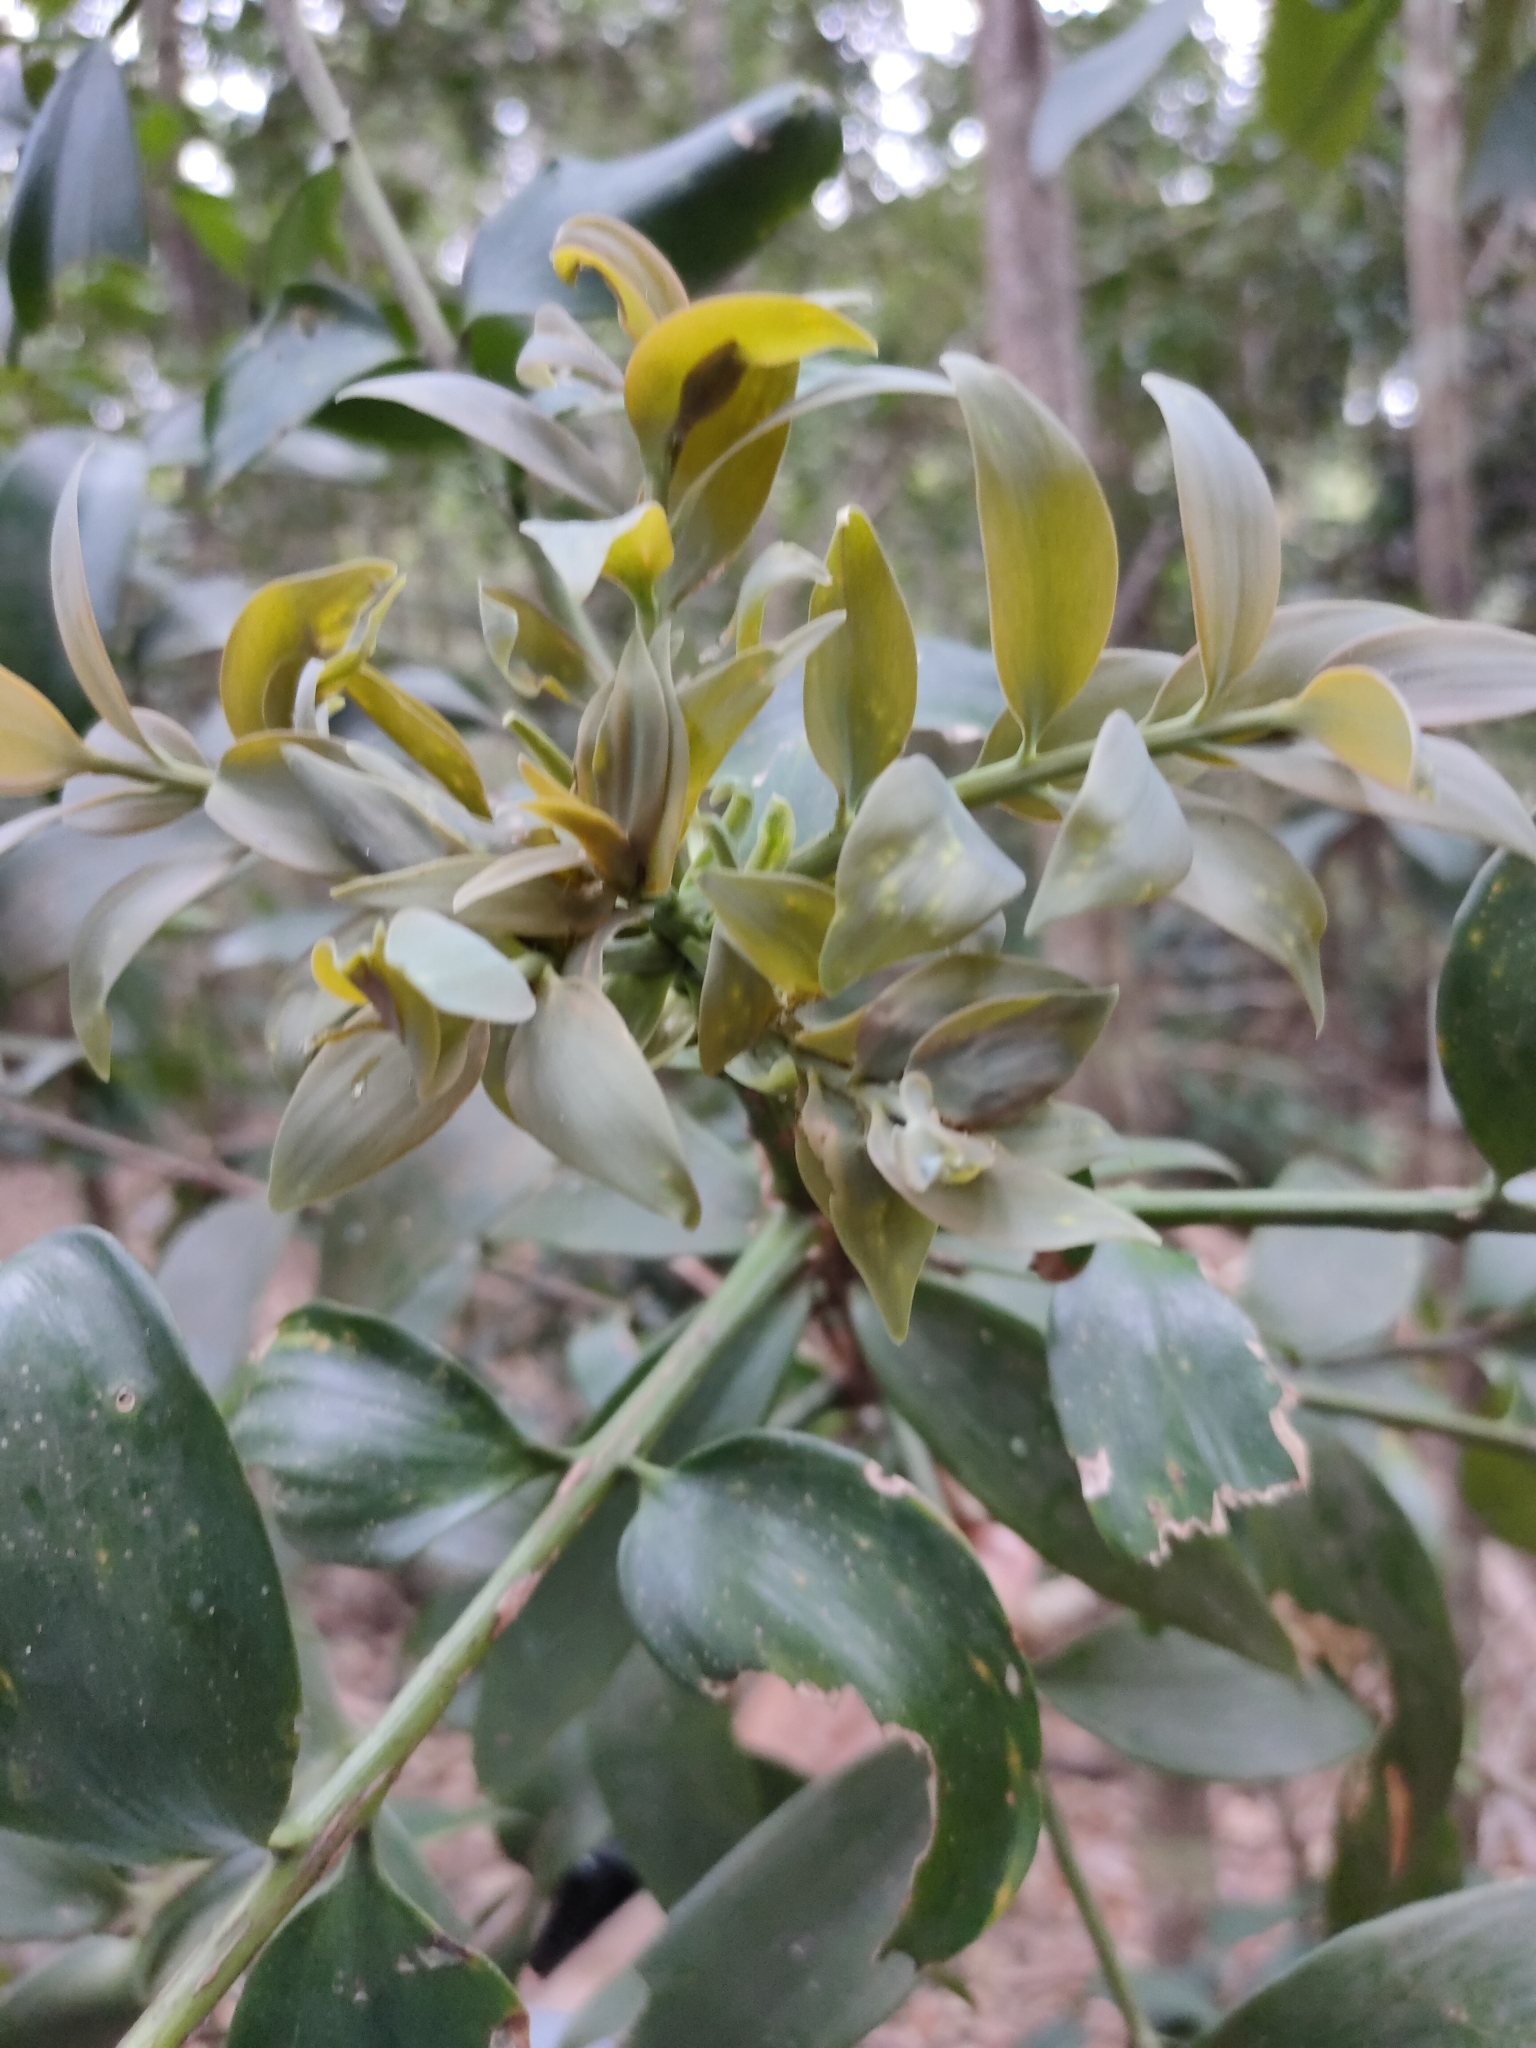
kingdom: Plantae
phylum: Tracheophyta
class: Pinopsida
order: Pinales
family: Araucariaceae
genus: Agathis
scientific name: Agathis robusta
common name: Australian-kauri
